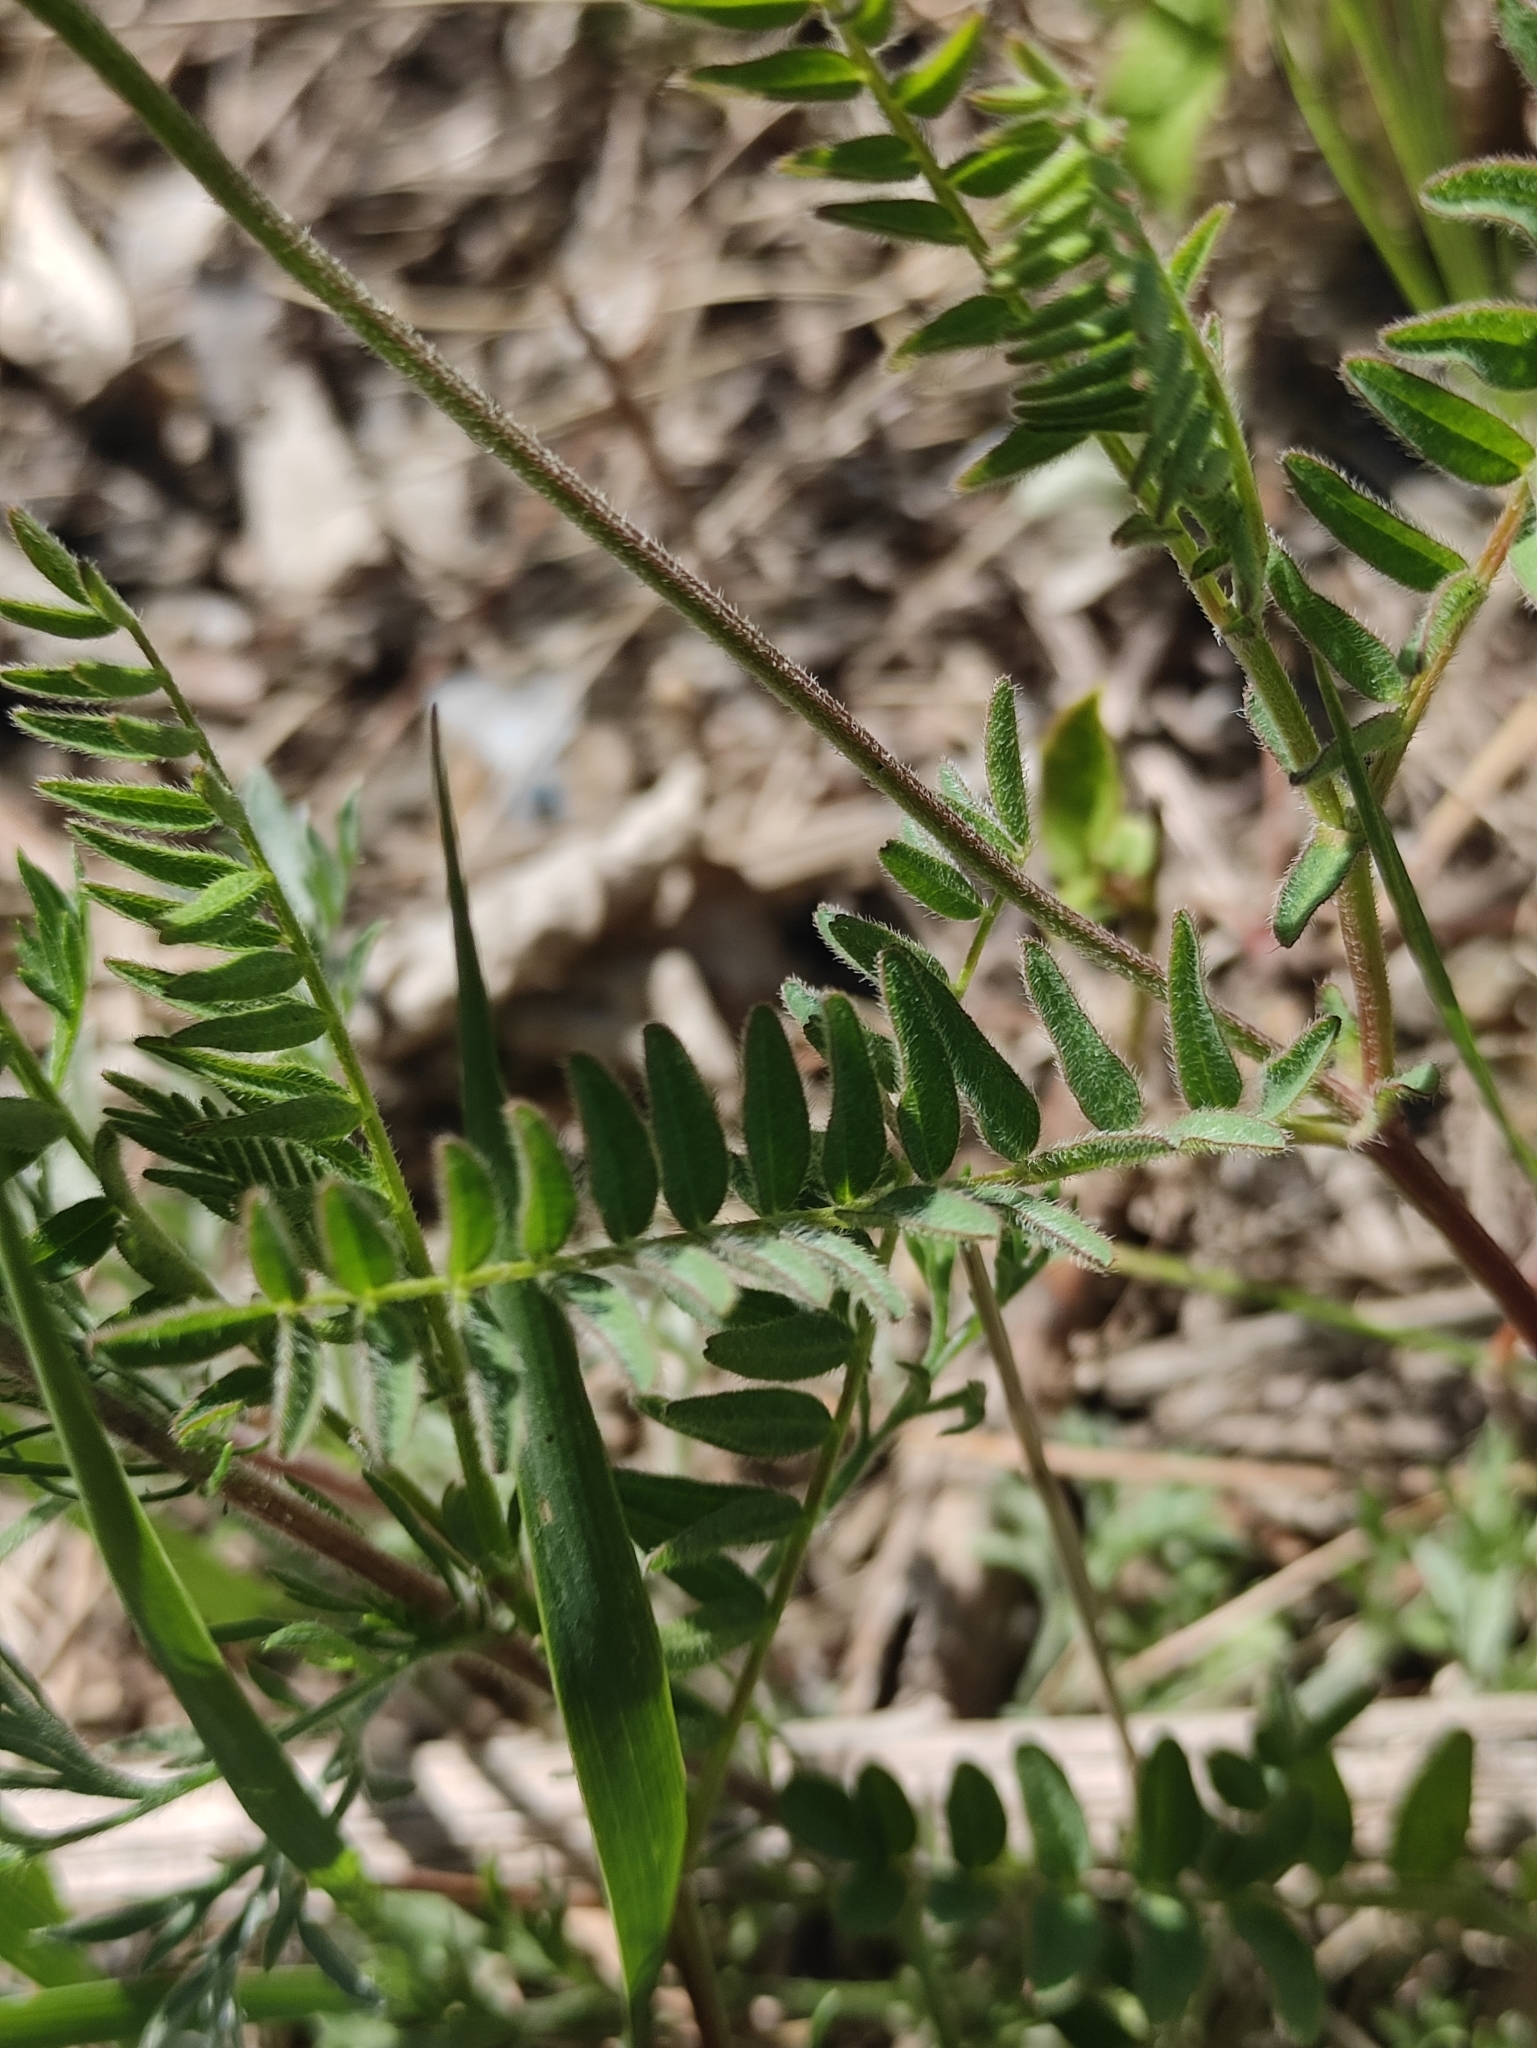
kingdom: Plantae
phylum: Tracheophyta
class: Magnoliopsida
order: Fabales
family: Fabaceae
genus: Astragalus
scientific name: Astragalus danicus
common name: Purple milk-vetch
